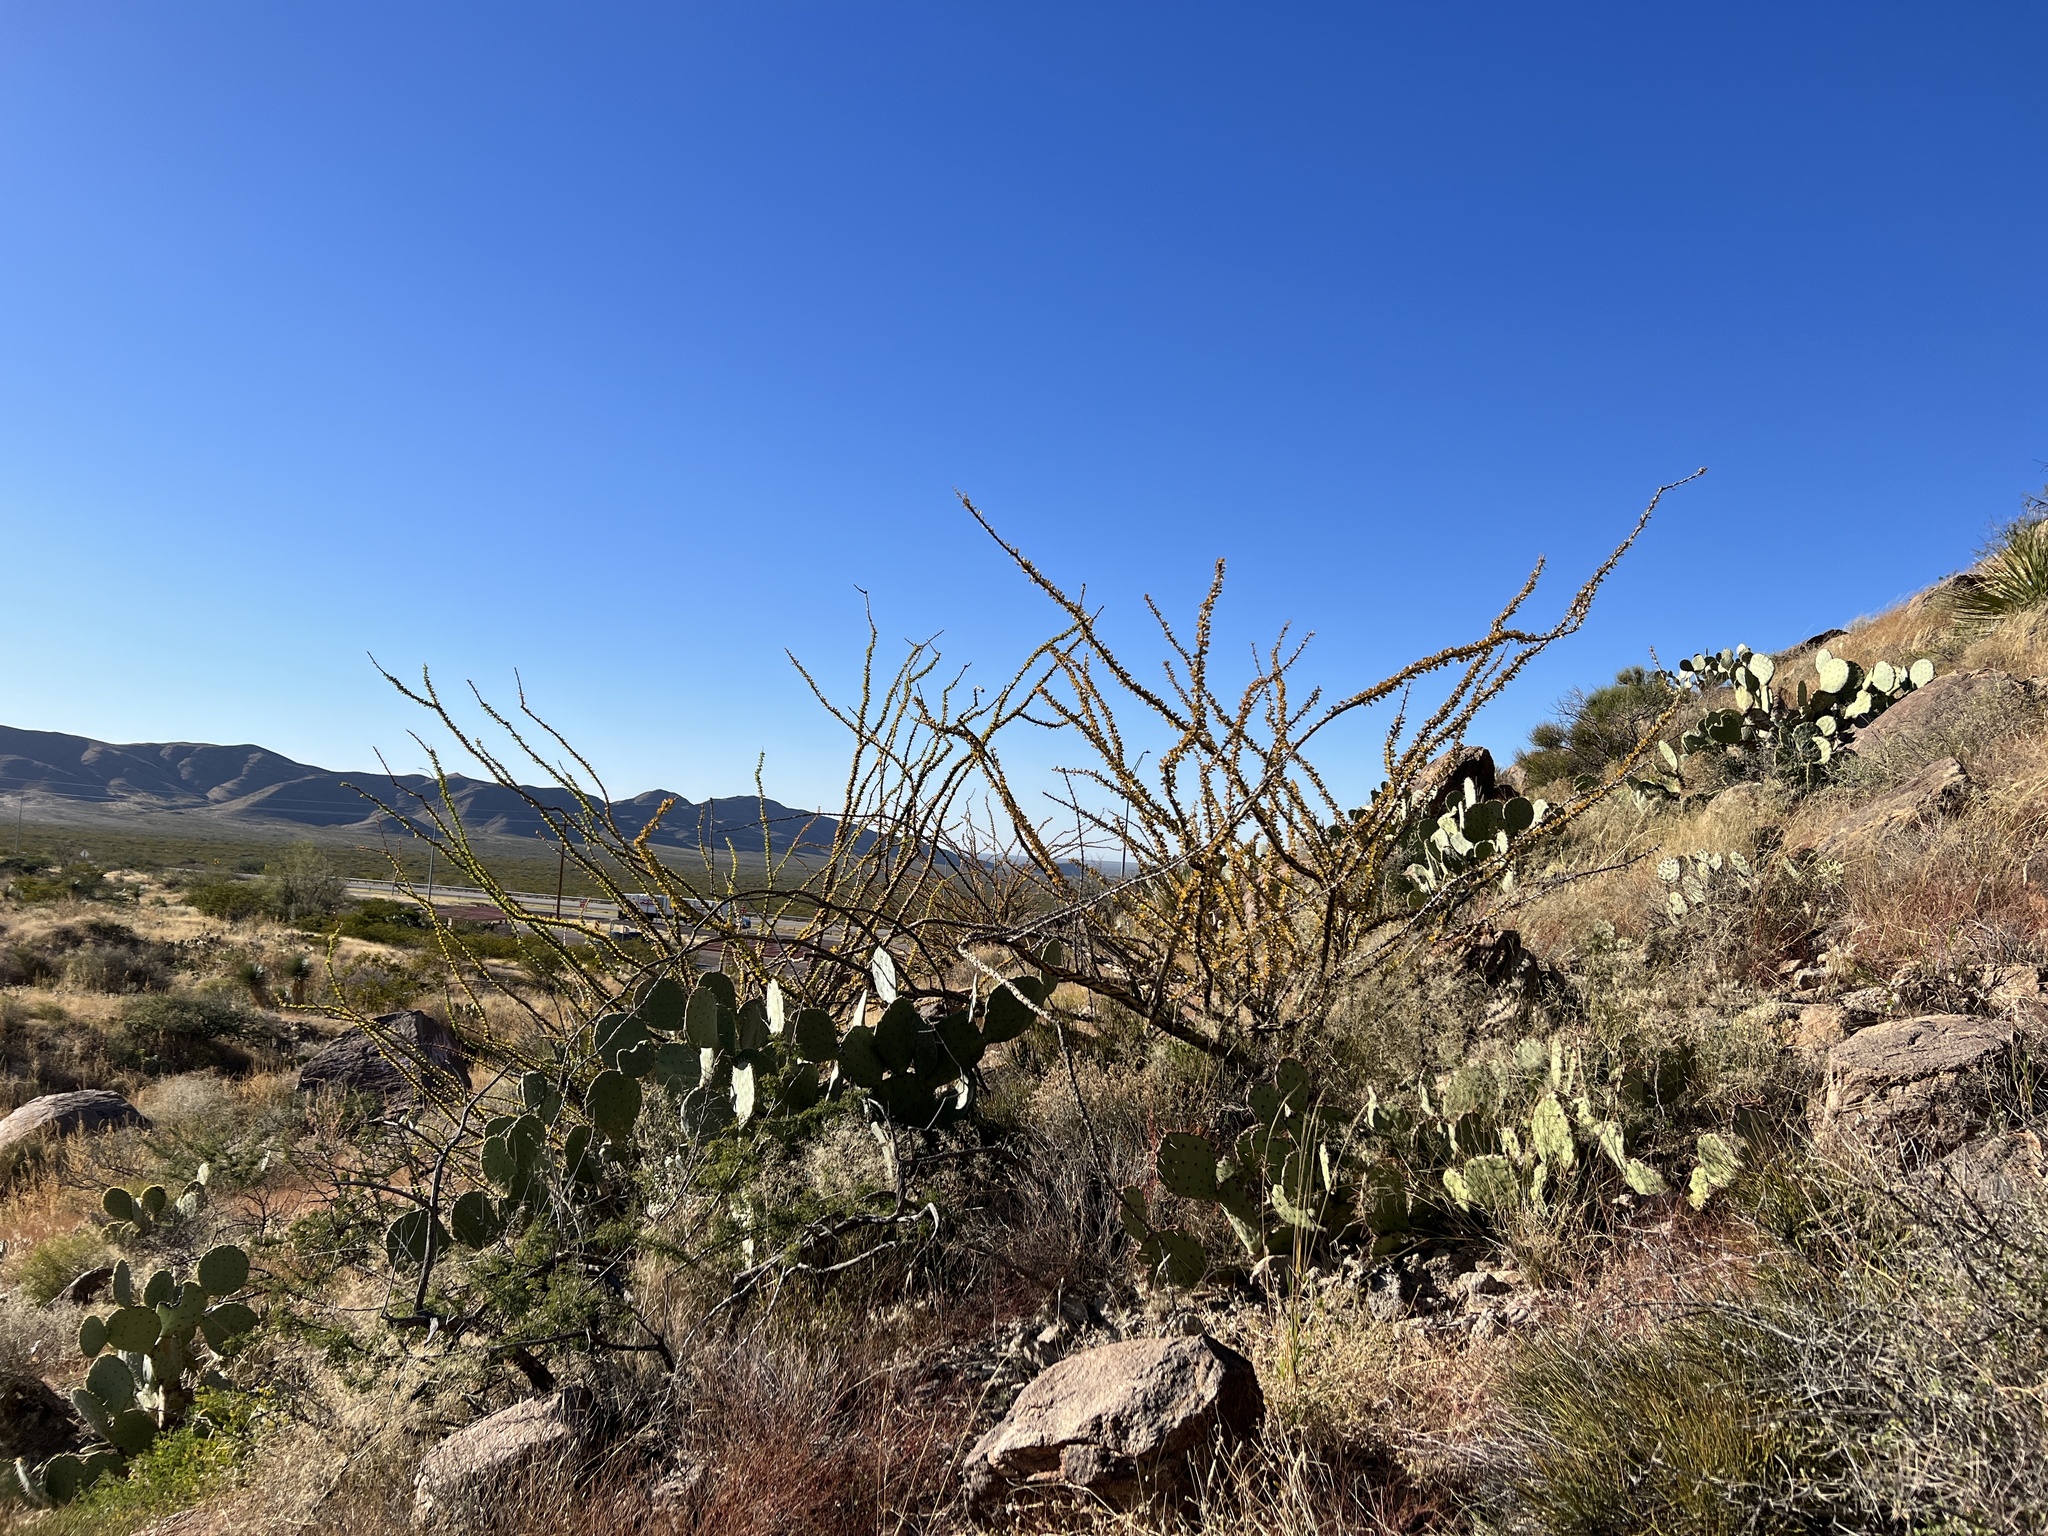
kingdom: Plantae
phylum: Tracheophyta
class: Magnoliopsida
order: Ericales
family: Fouquieriaceae
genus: Fouquieria
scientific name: Fouquieria splendens
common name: Vine-cactus
